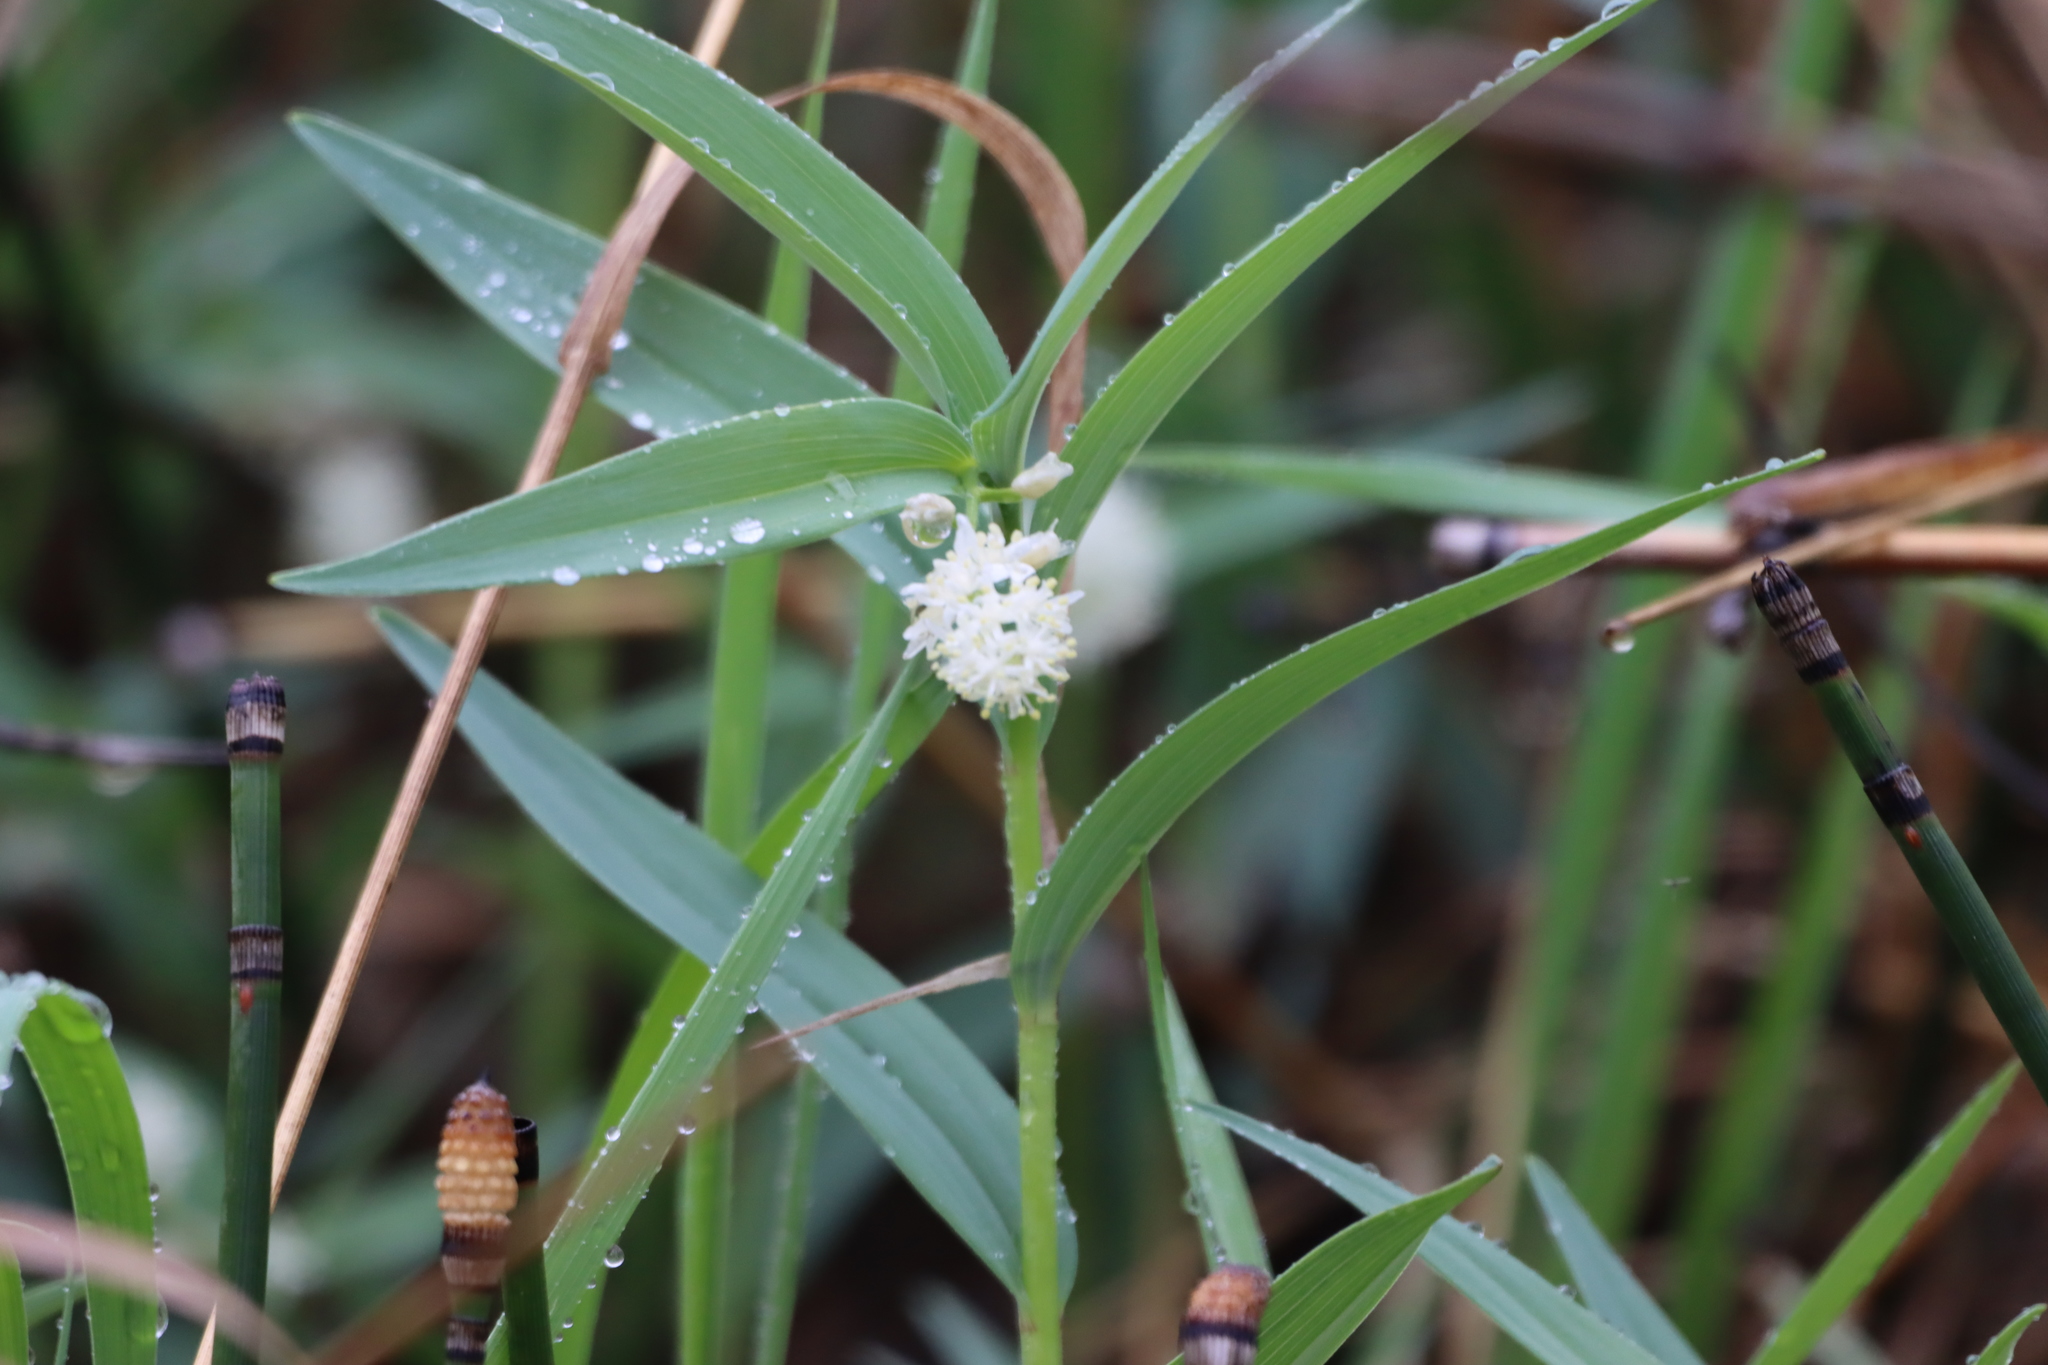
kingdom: Plantae
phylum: Tracheophyta
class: Liliopsida
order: Asparagales
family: Asparagaceae
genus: Maianthemum
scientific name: Maianthemum stellatum
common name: Little false solomon's seal
